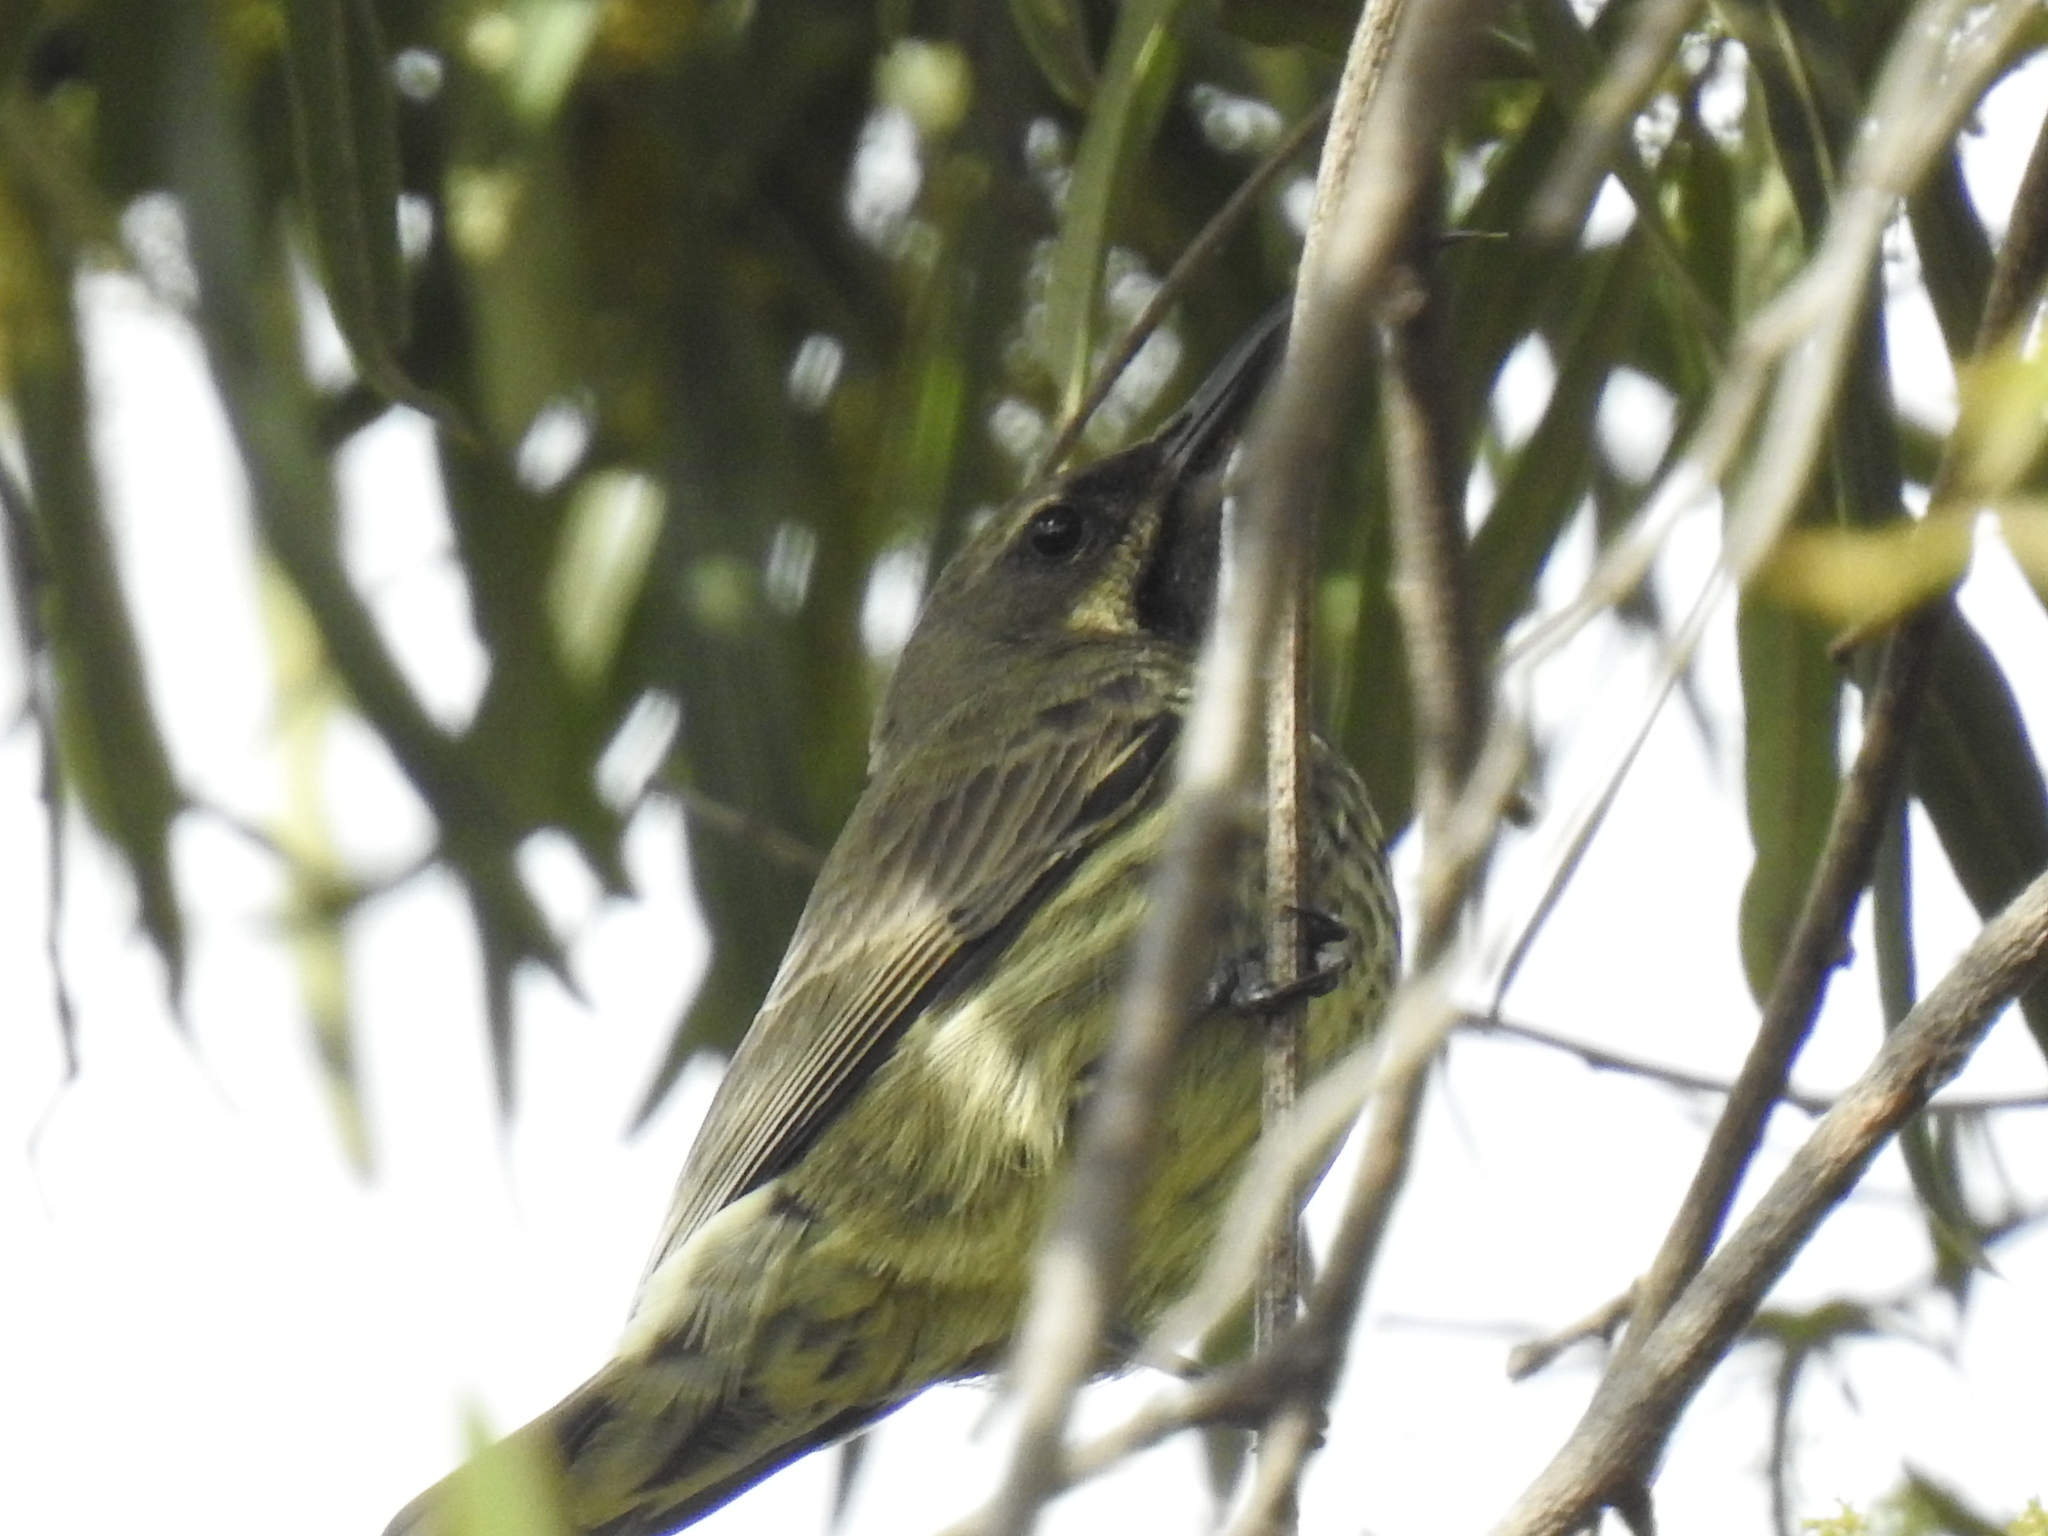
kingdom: Animalia
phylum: Chordata
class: Aves
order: Passeriformes
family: Nectariniidae
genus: Chalcomitra
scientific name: Chalcomitra amethystina
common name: Amethyst sunbird
